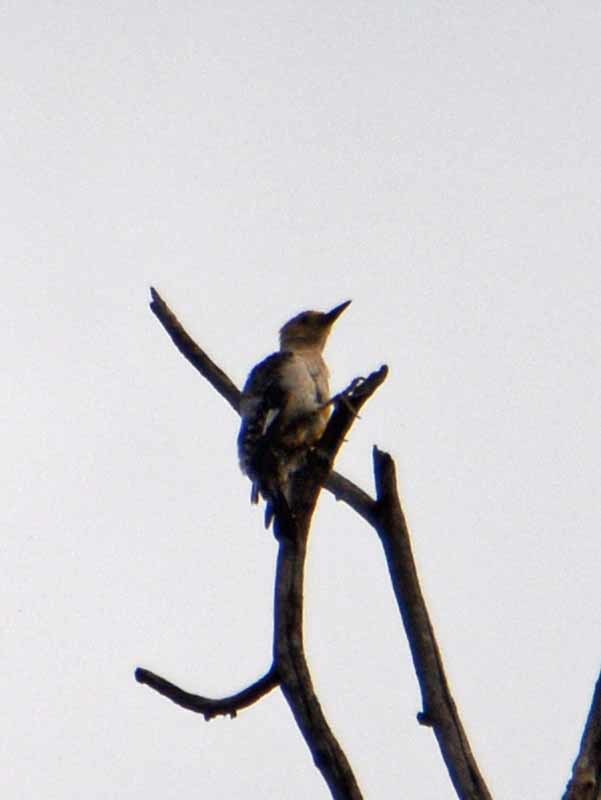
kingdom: Animalia
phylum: Chordata
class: Aves
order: Piciformes
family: Picidae
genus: Melanerpes
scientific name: Melanerpes aurifrons
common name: Golden-fronted woodpecker
